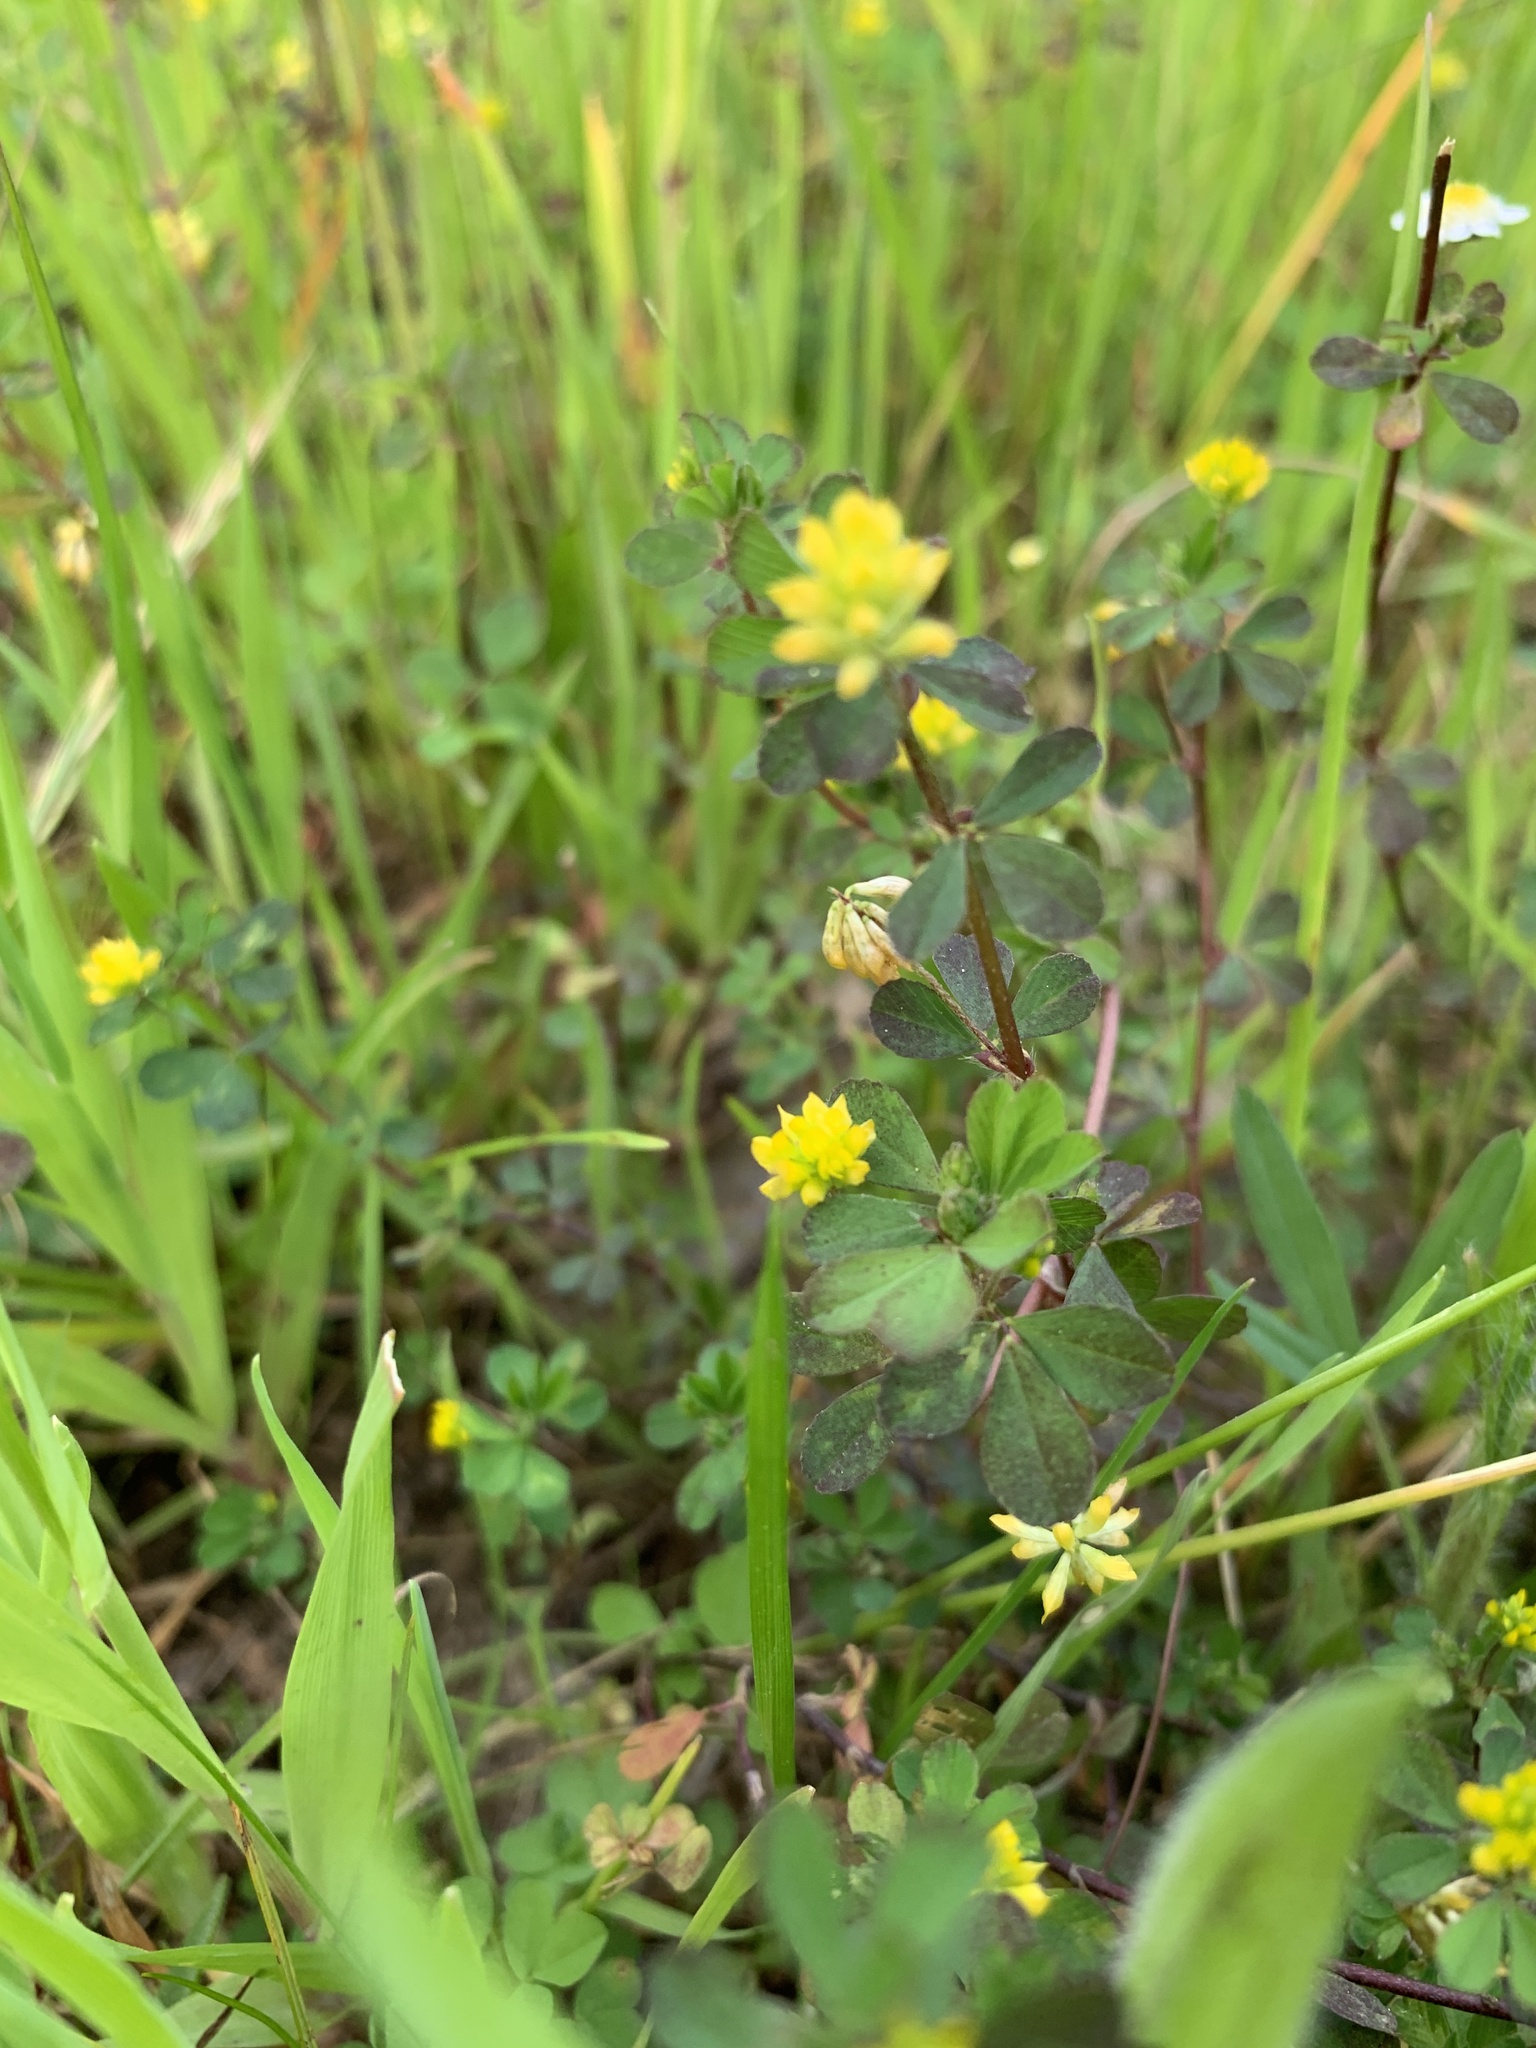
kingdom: Plantae
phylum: Tracheophyta
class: Magnoliopsida
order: Fabales
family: Fabaceae
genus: Trifolium
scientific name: Trifolium dubium
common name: Suckling clover
